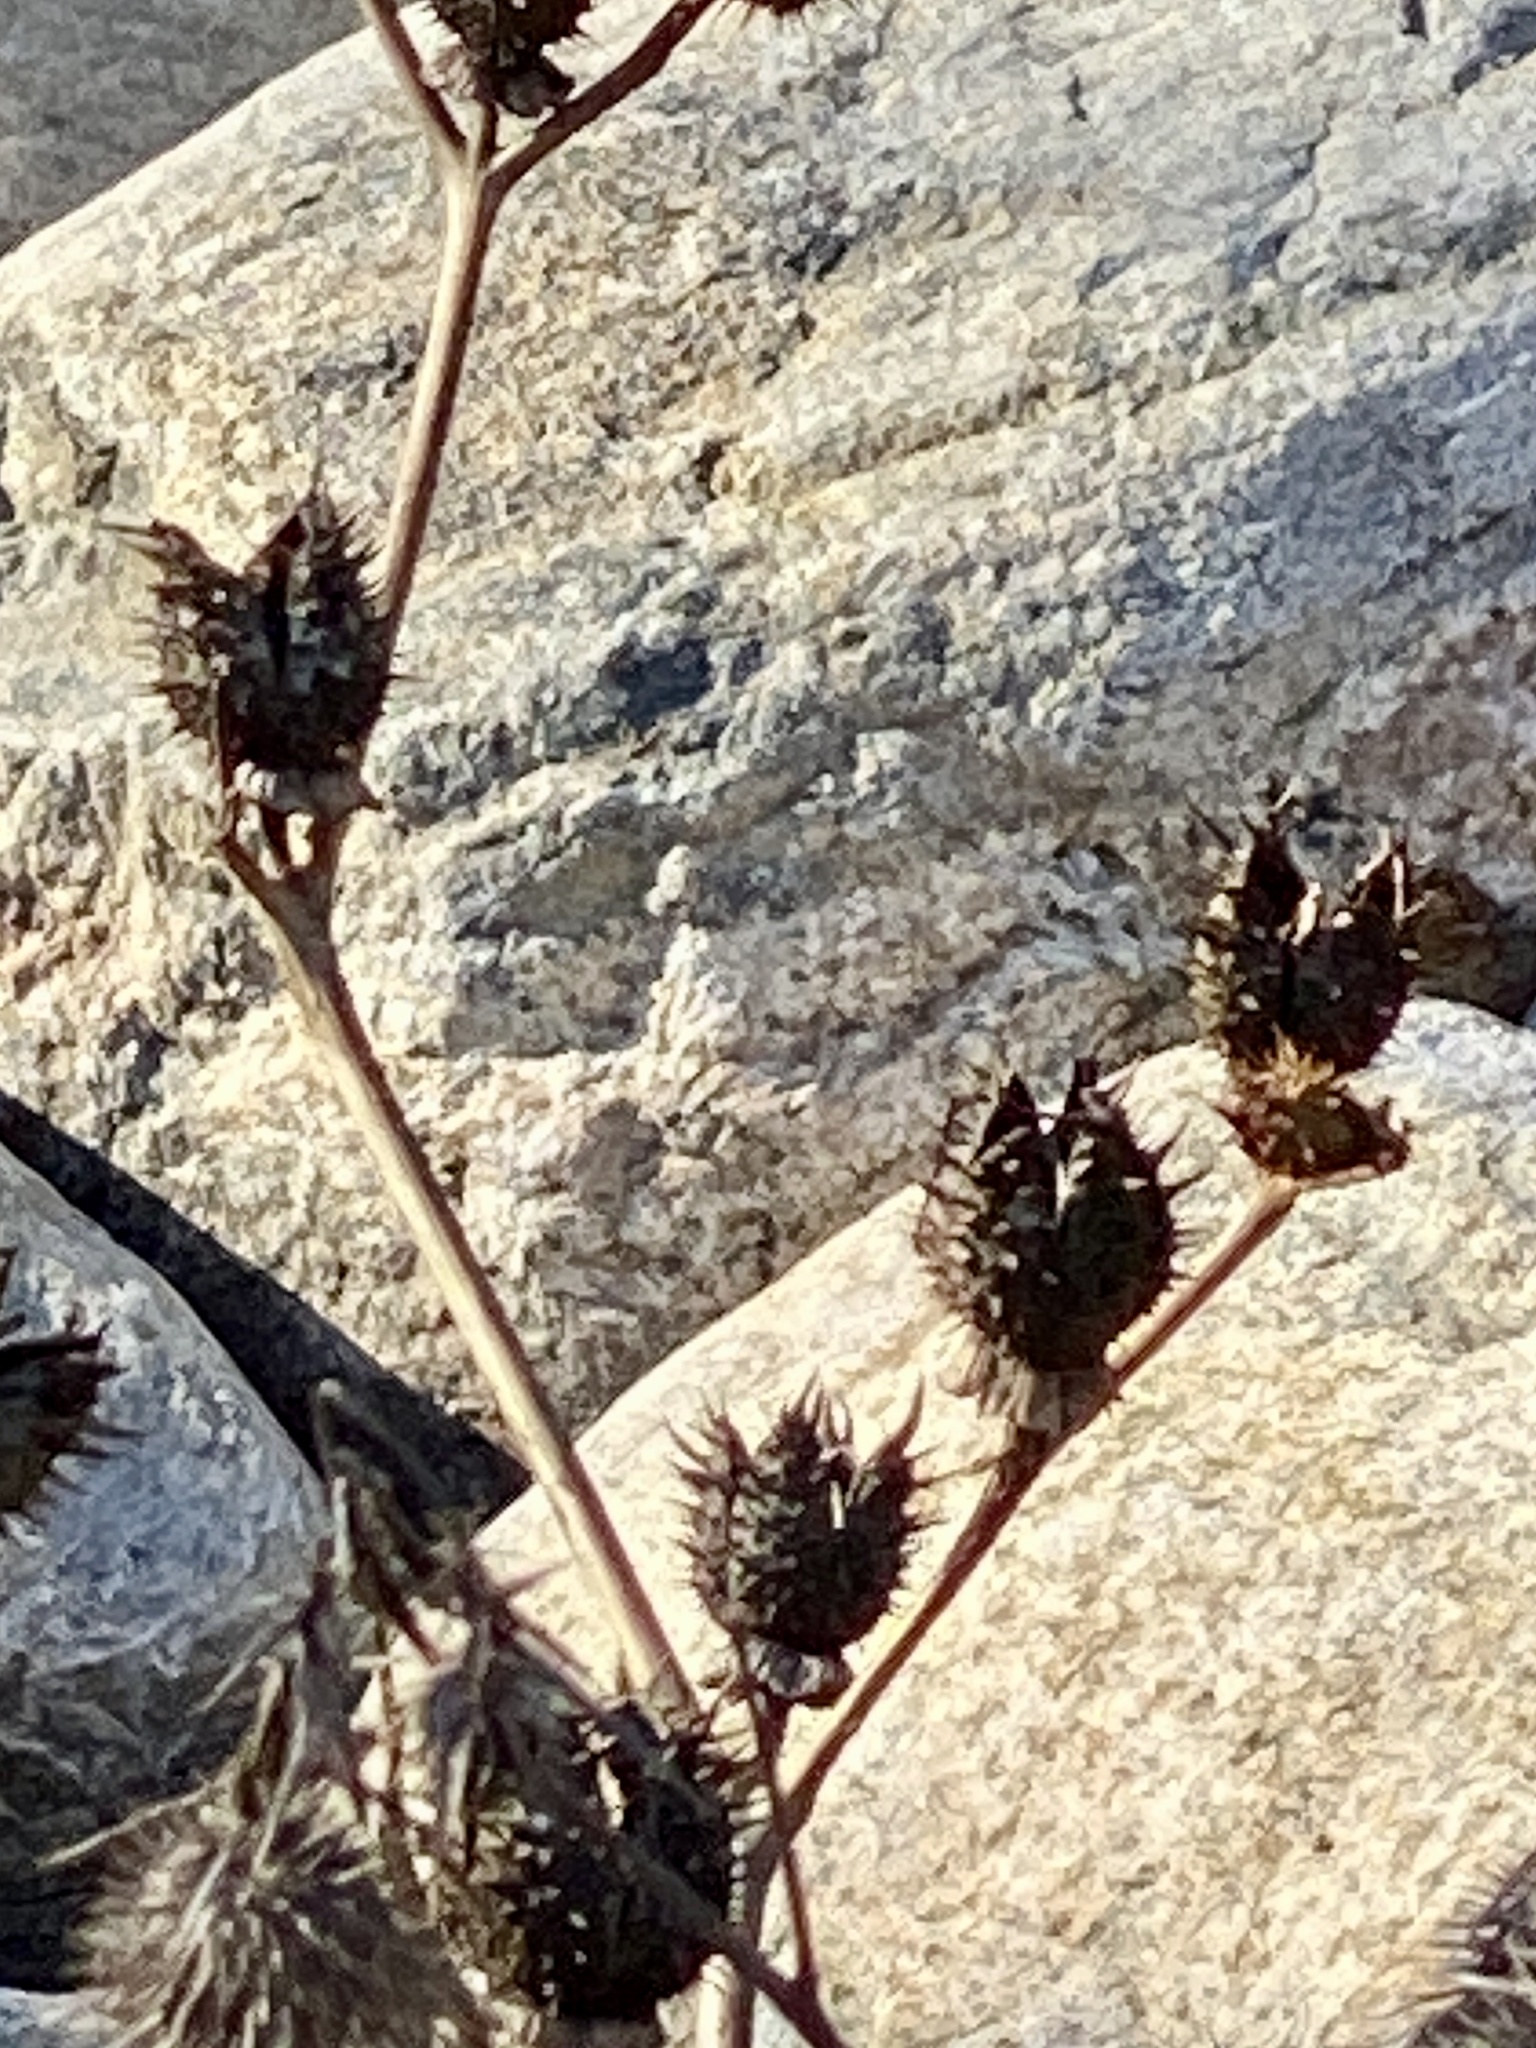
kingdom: Plantae
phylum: Tracheophyta
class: Magnoliopsida
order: Solanales
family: Solanaceae
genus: Datura
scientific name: Datura stramonium
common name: Thorn-apple
